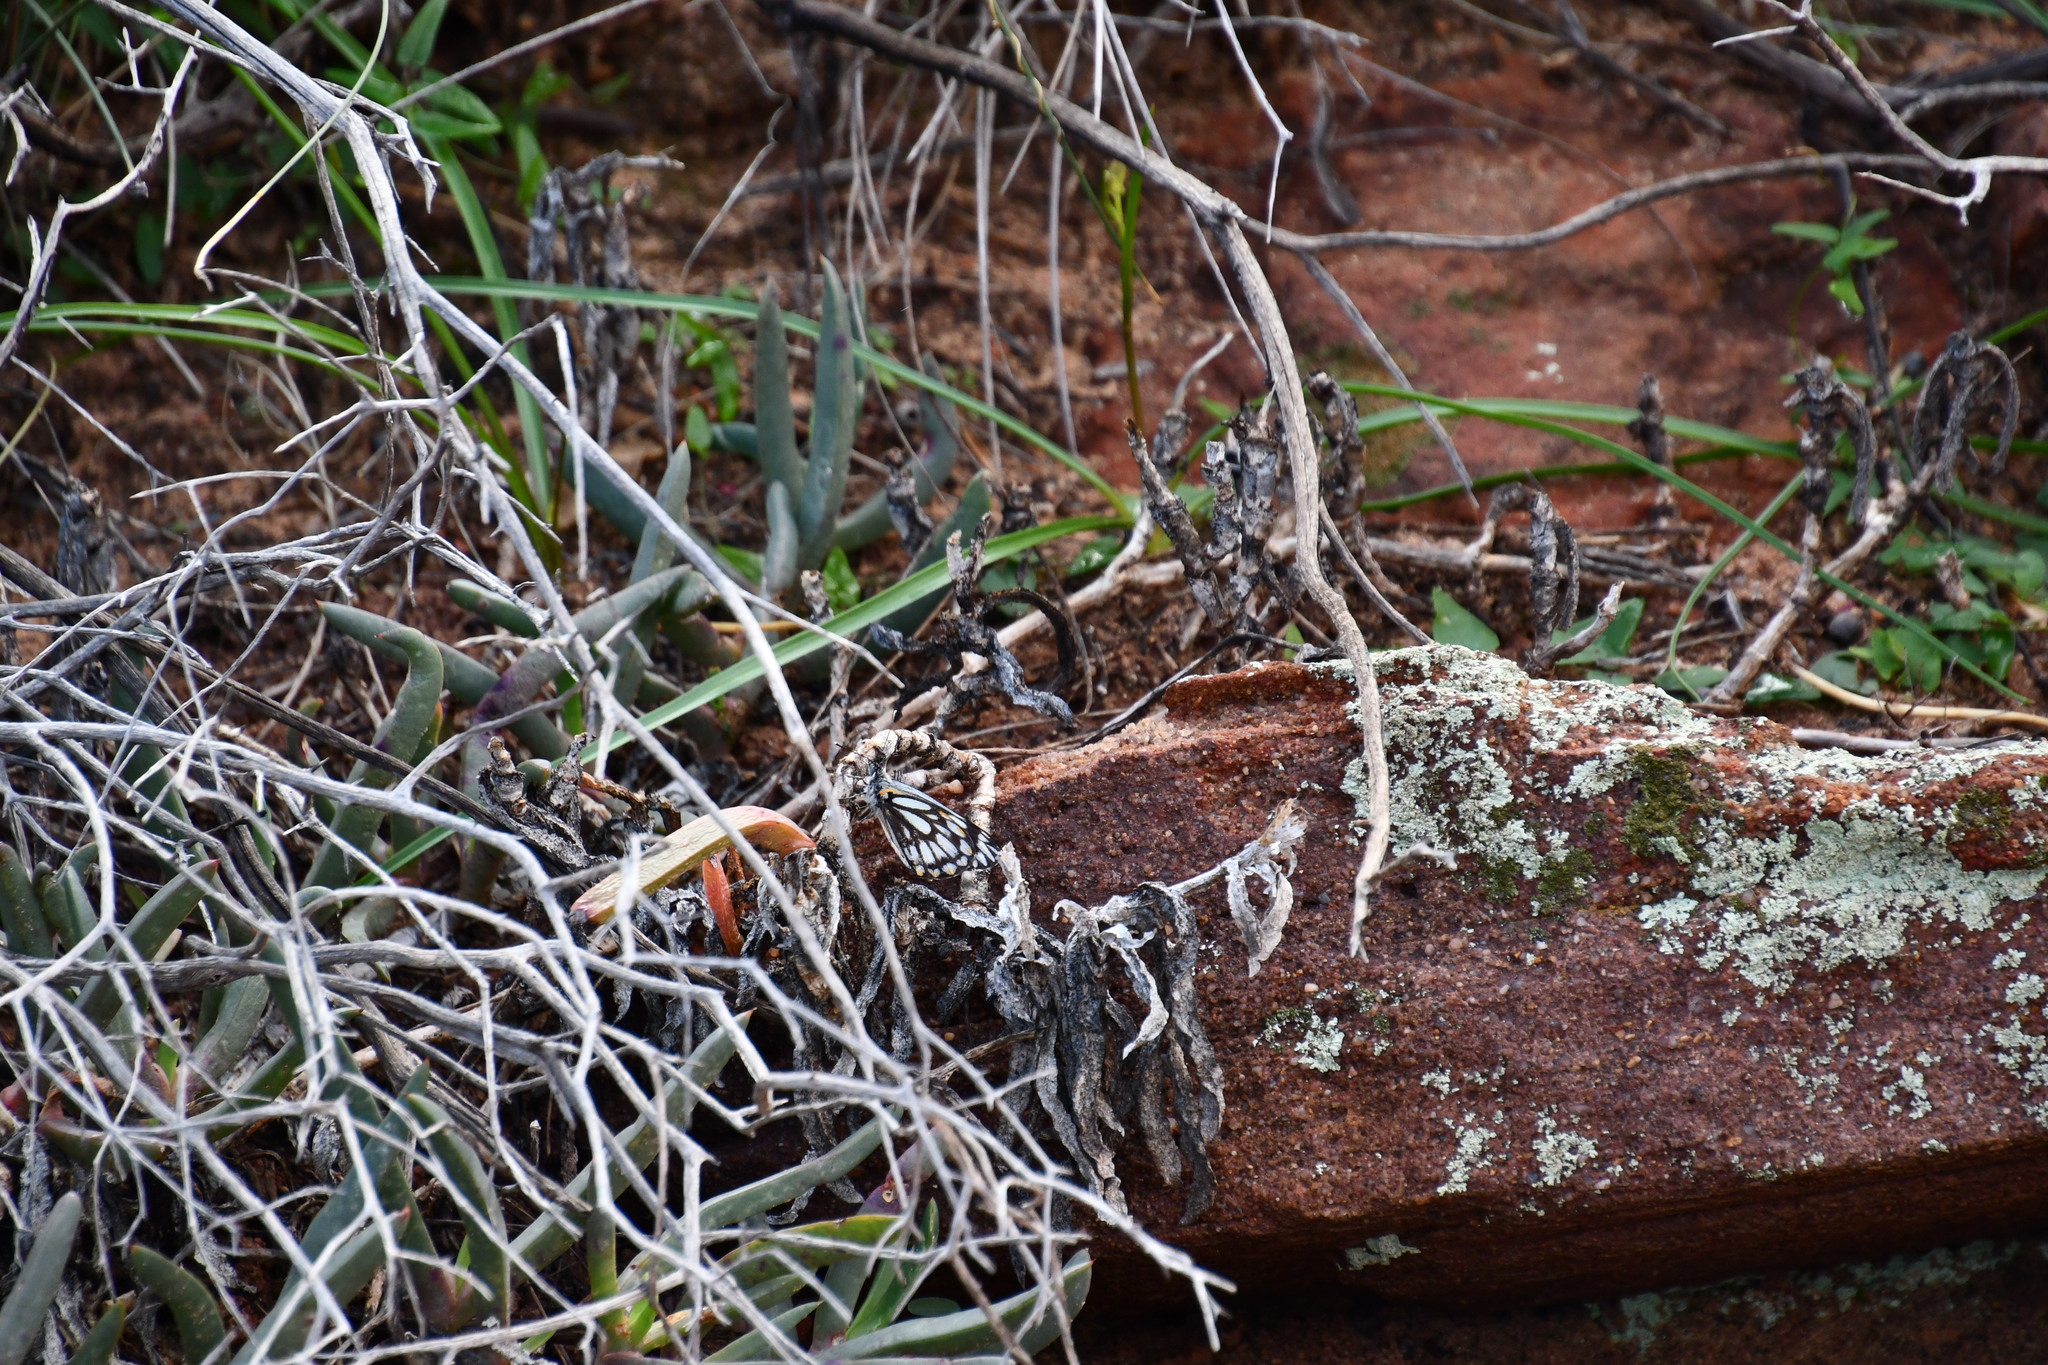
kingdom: Animalia
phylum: Arthropoda
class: Insecta
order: Lepidoptera
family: Pieridae
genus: Belenois
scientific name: Belenois java
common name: Caper white
